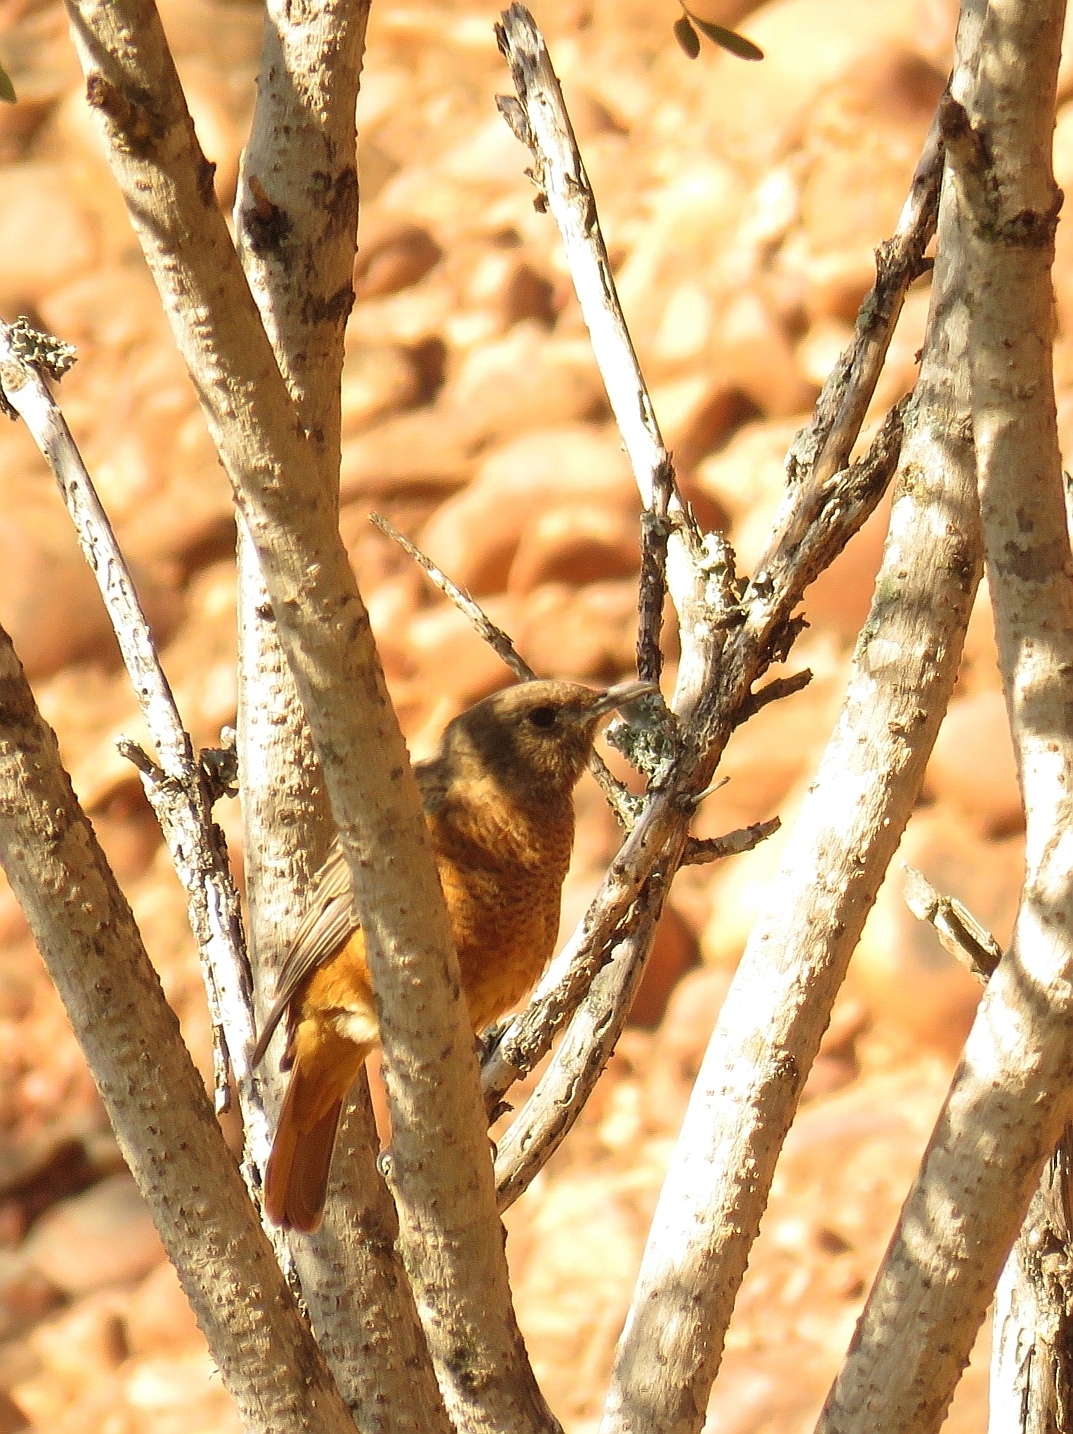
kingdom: Animalia
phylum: Chordata
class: Aves
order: Passeriformes
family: Muscicapidae
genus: Monticola
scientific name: Monticola rupestris
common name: Cape rock thrush
